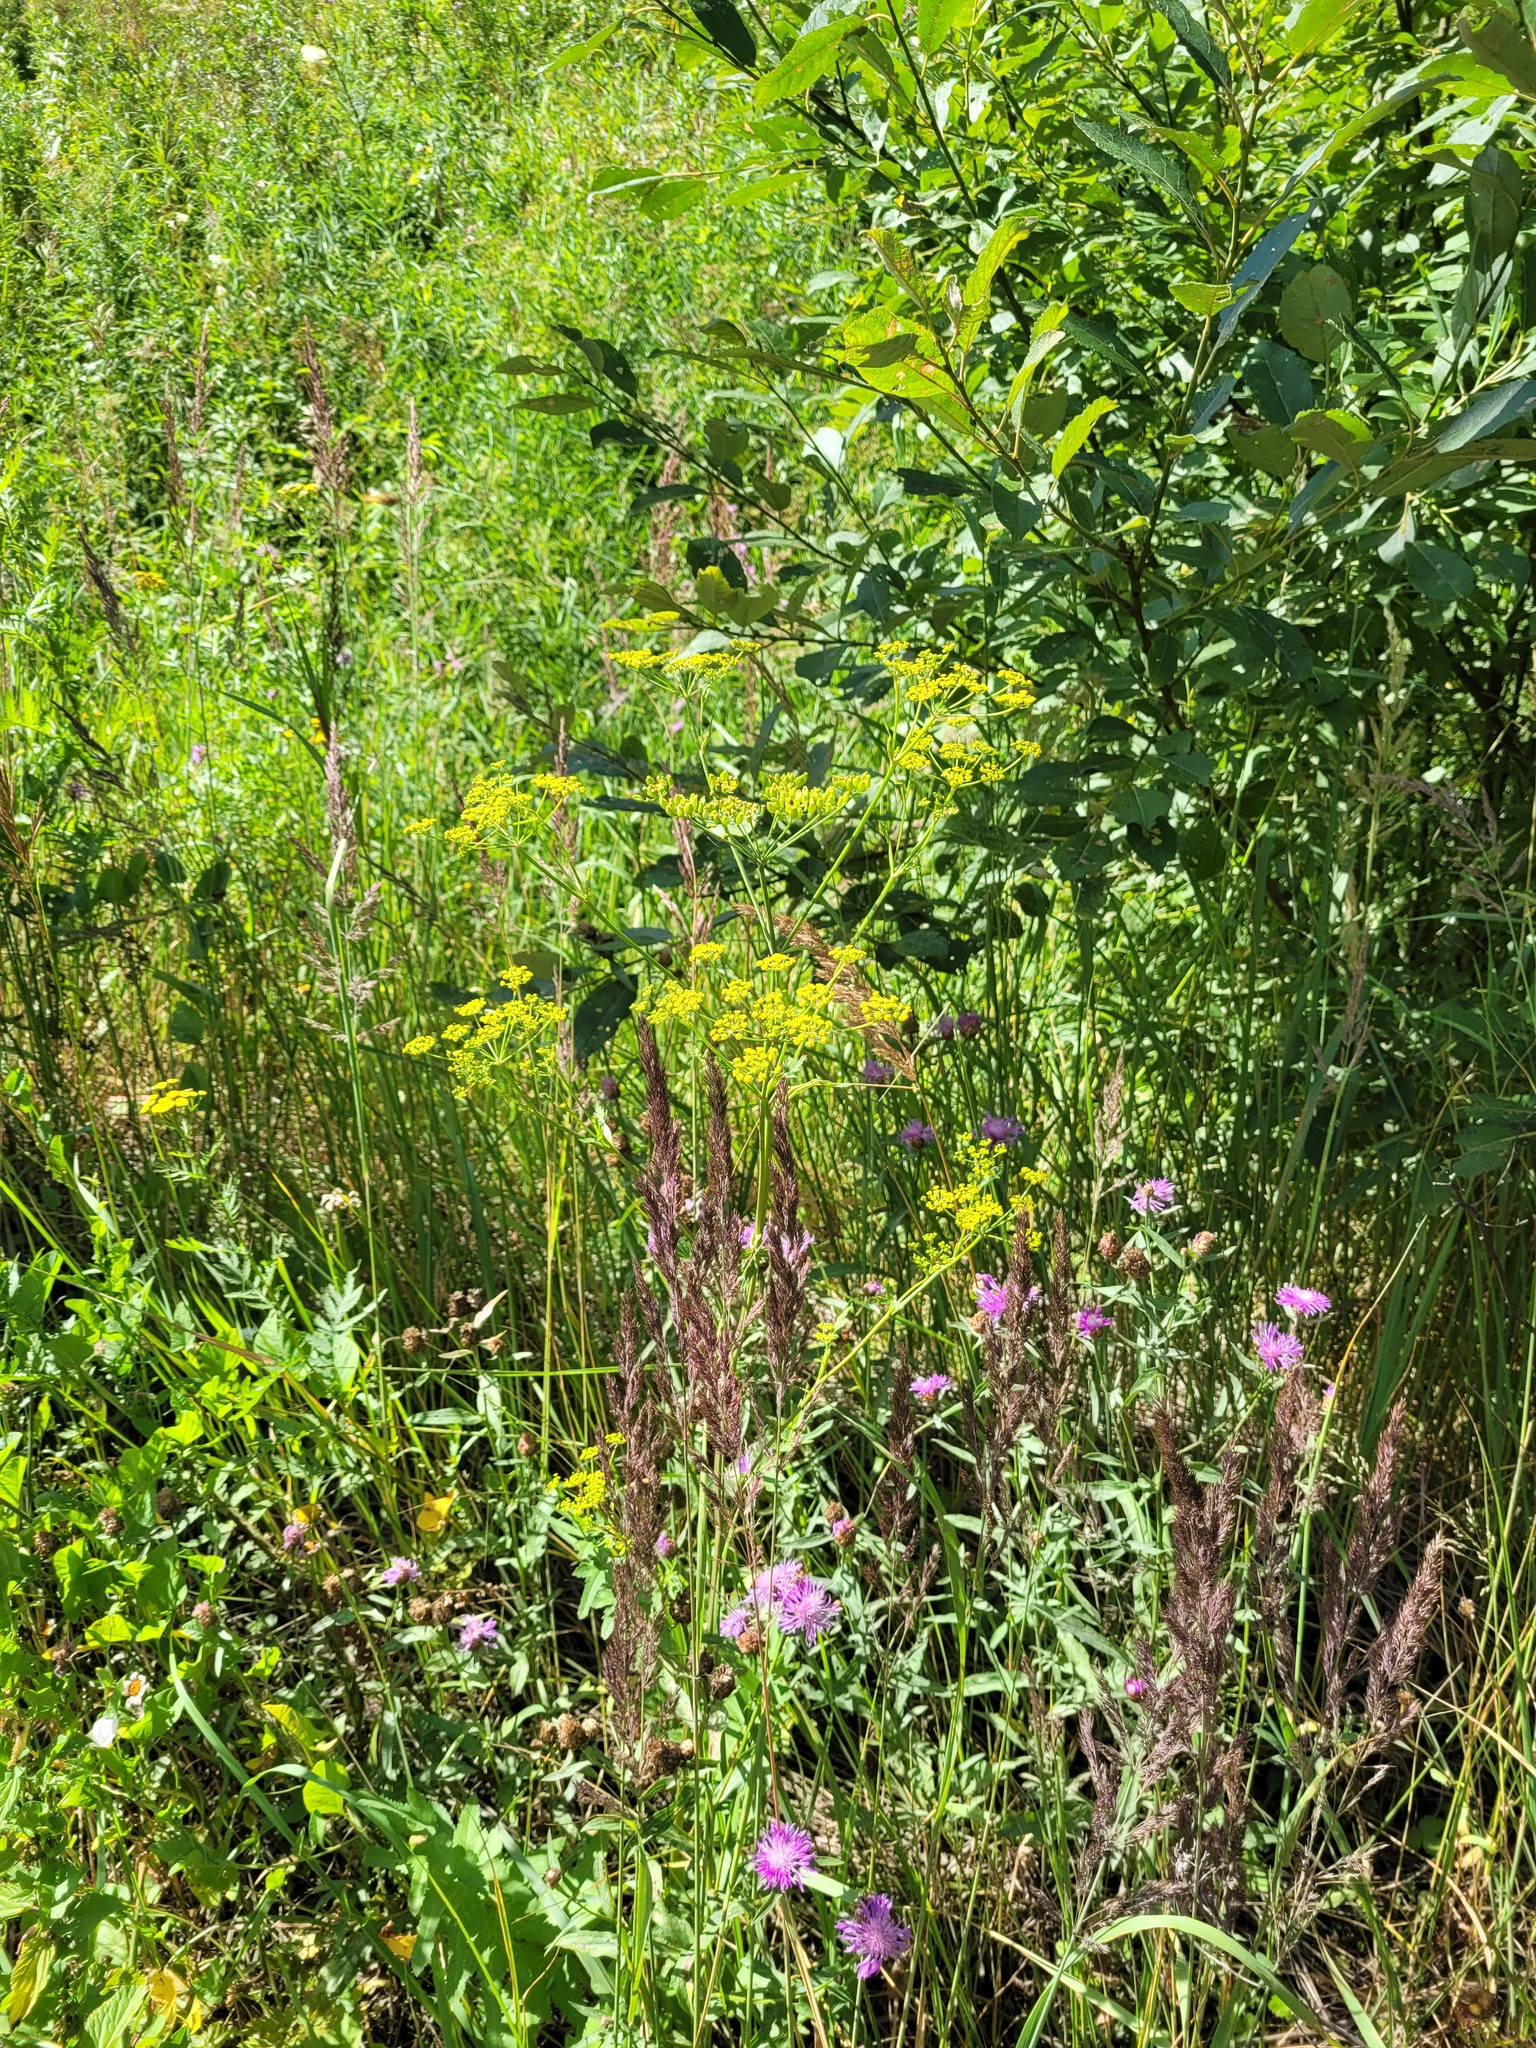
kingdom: Plantae
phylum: Tracheophyta
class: Magnoliopsida
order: Apiales
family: Apiaceae
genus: Pastinaca
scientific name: Pastinaca sativa
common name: Wild parsnip
